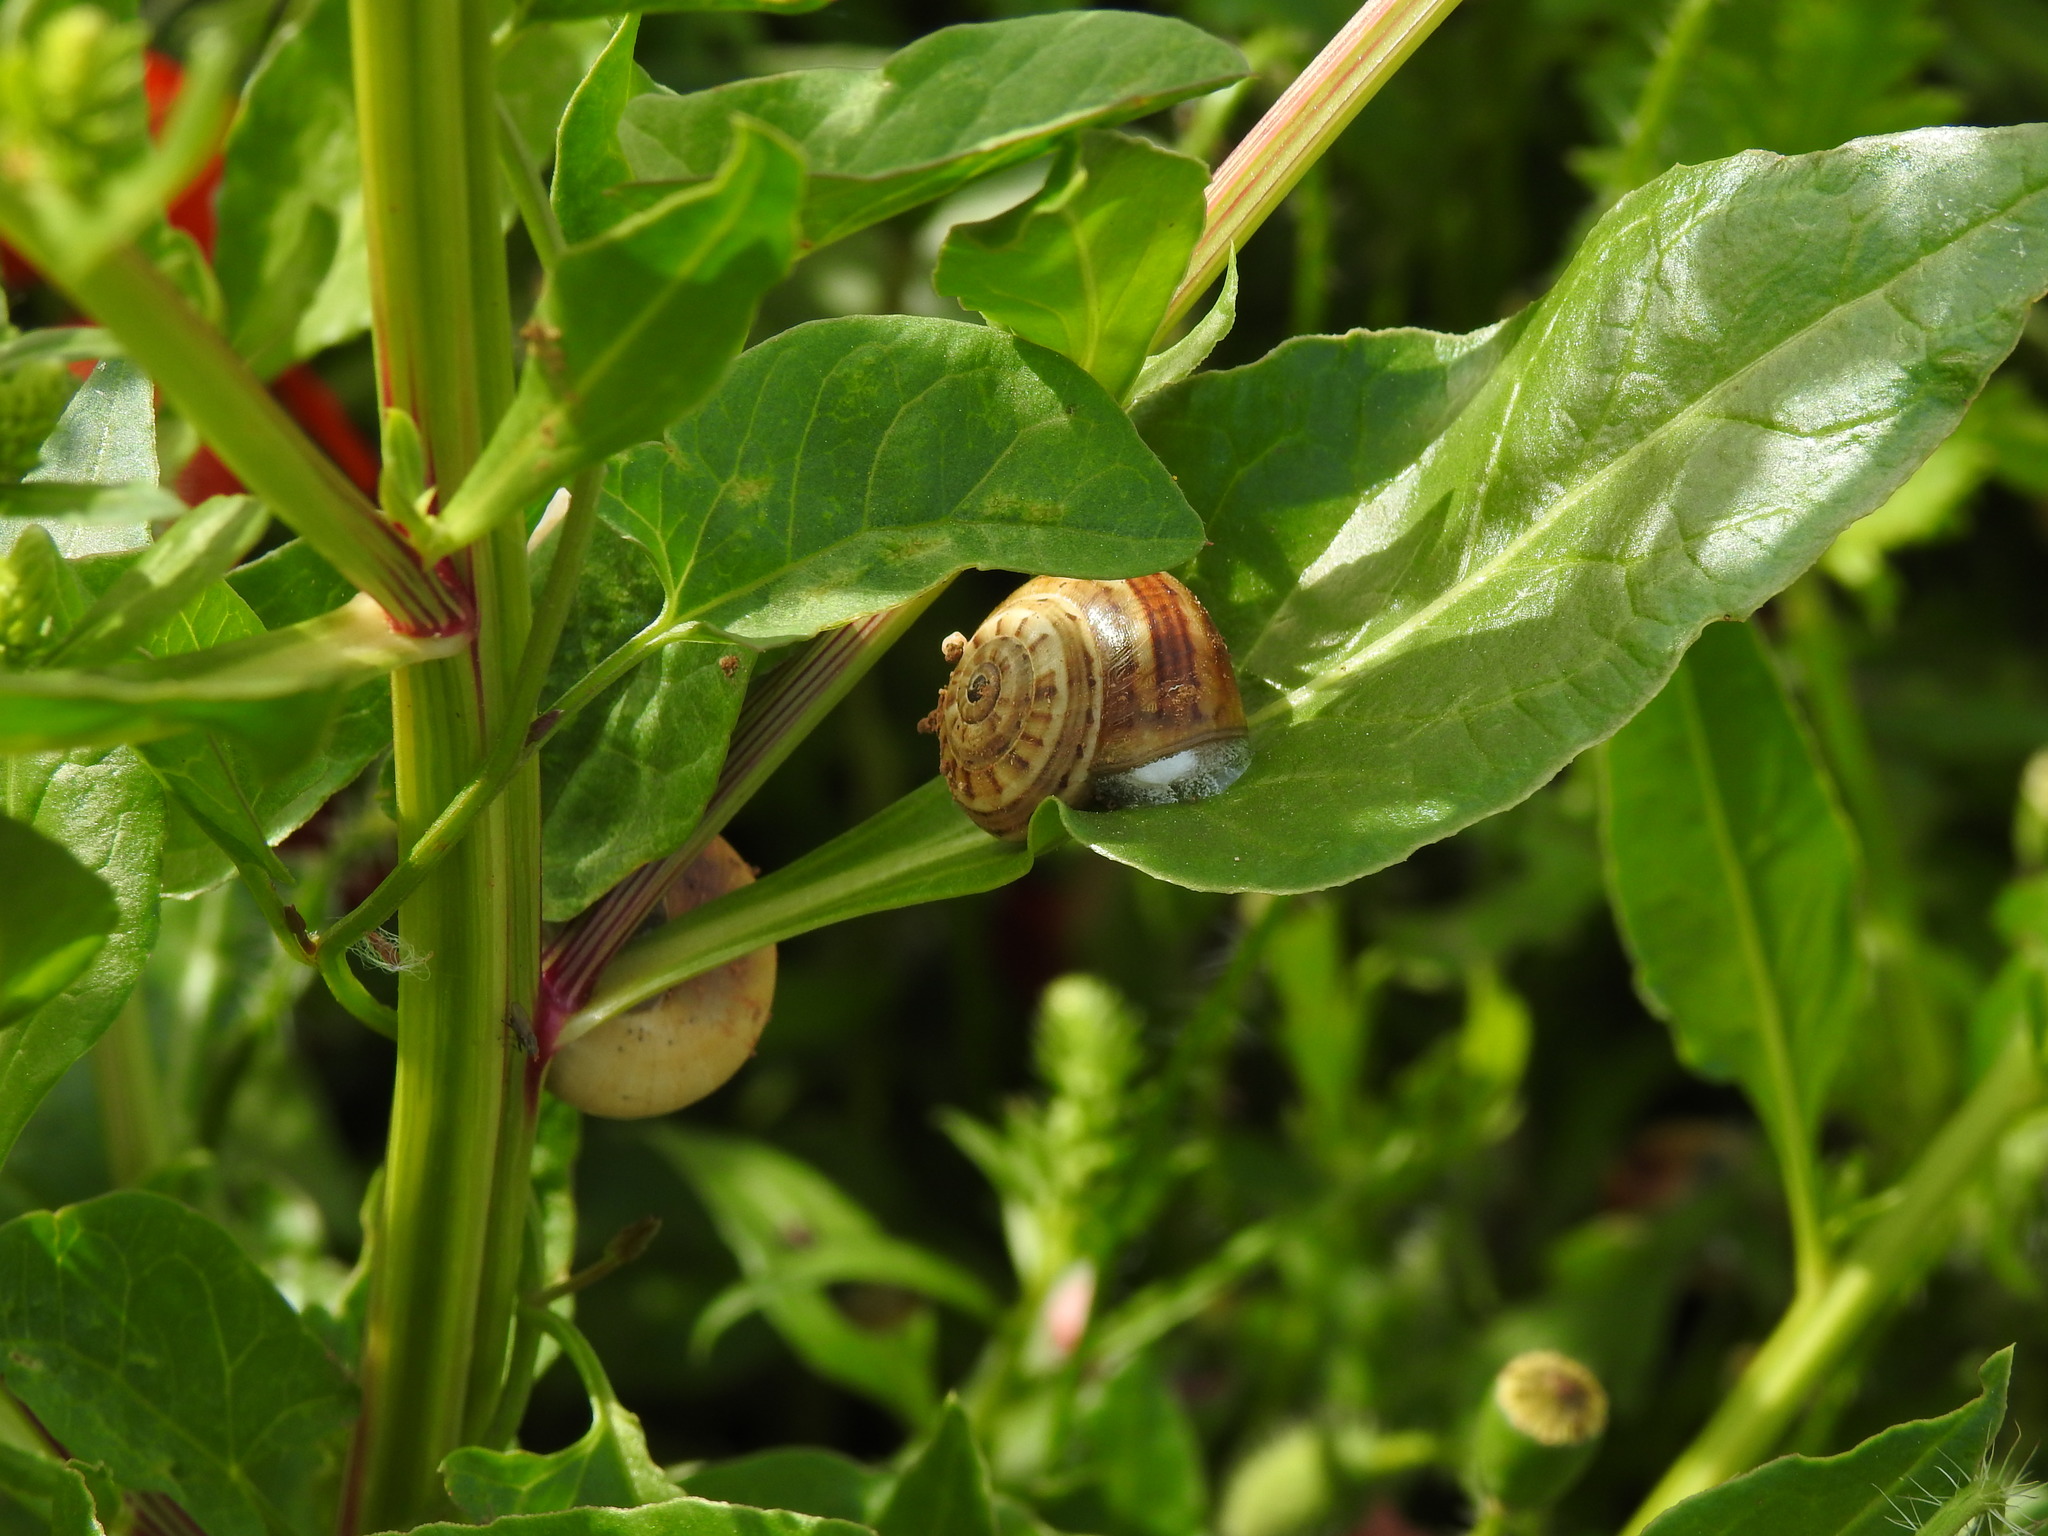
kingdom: Animalia
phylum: Mollusca
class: Gastropoda
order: Stylommatophora
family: Helicidae
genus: Theba
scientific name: Theba pisana
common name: White snail
